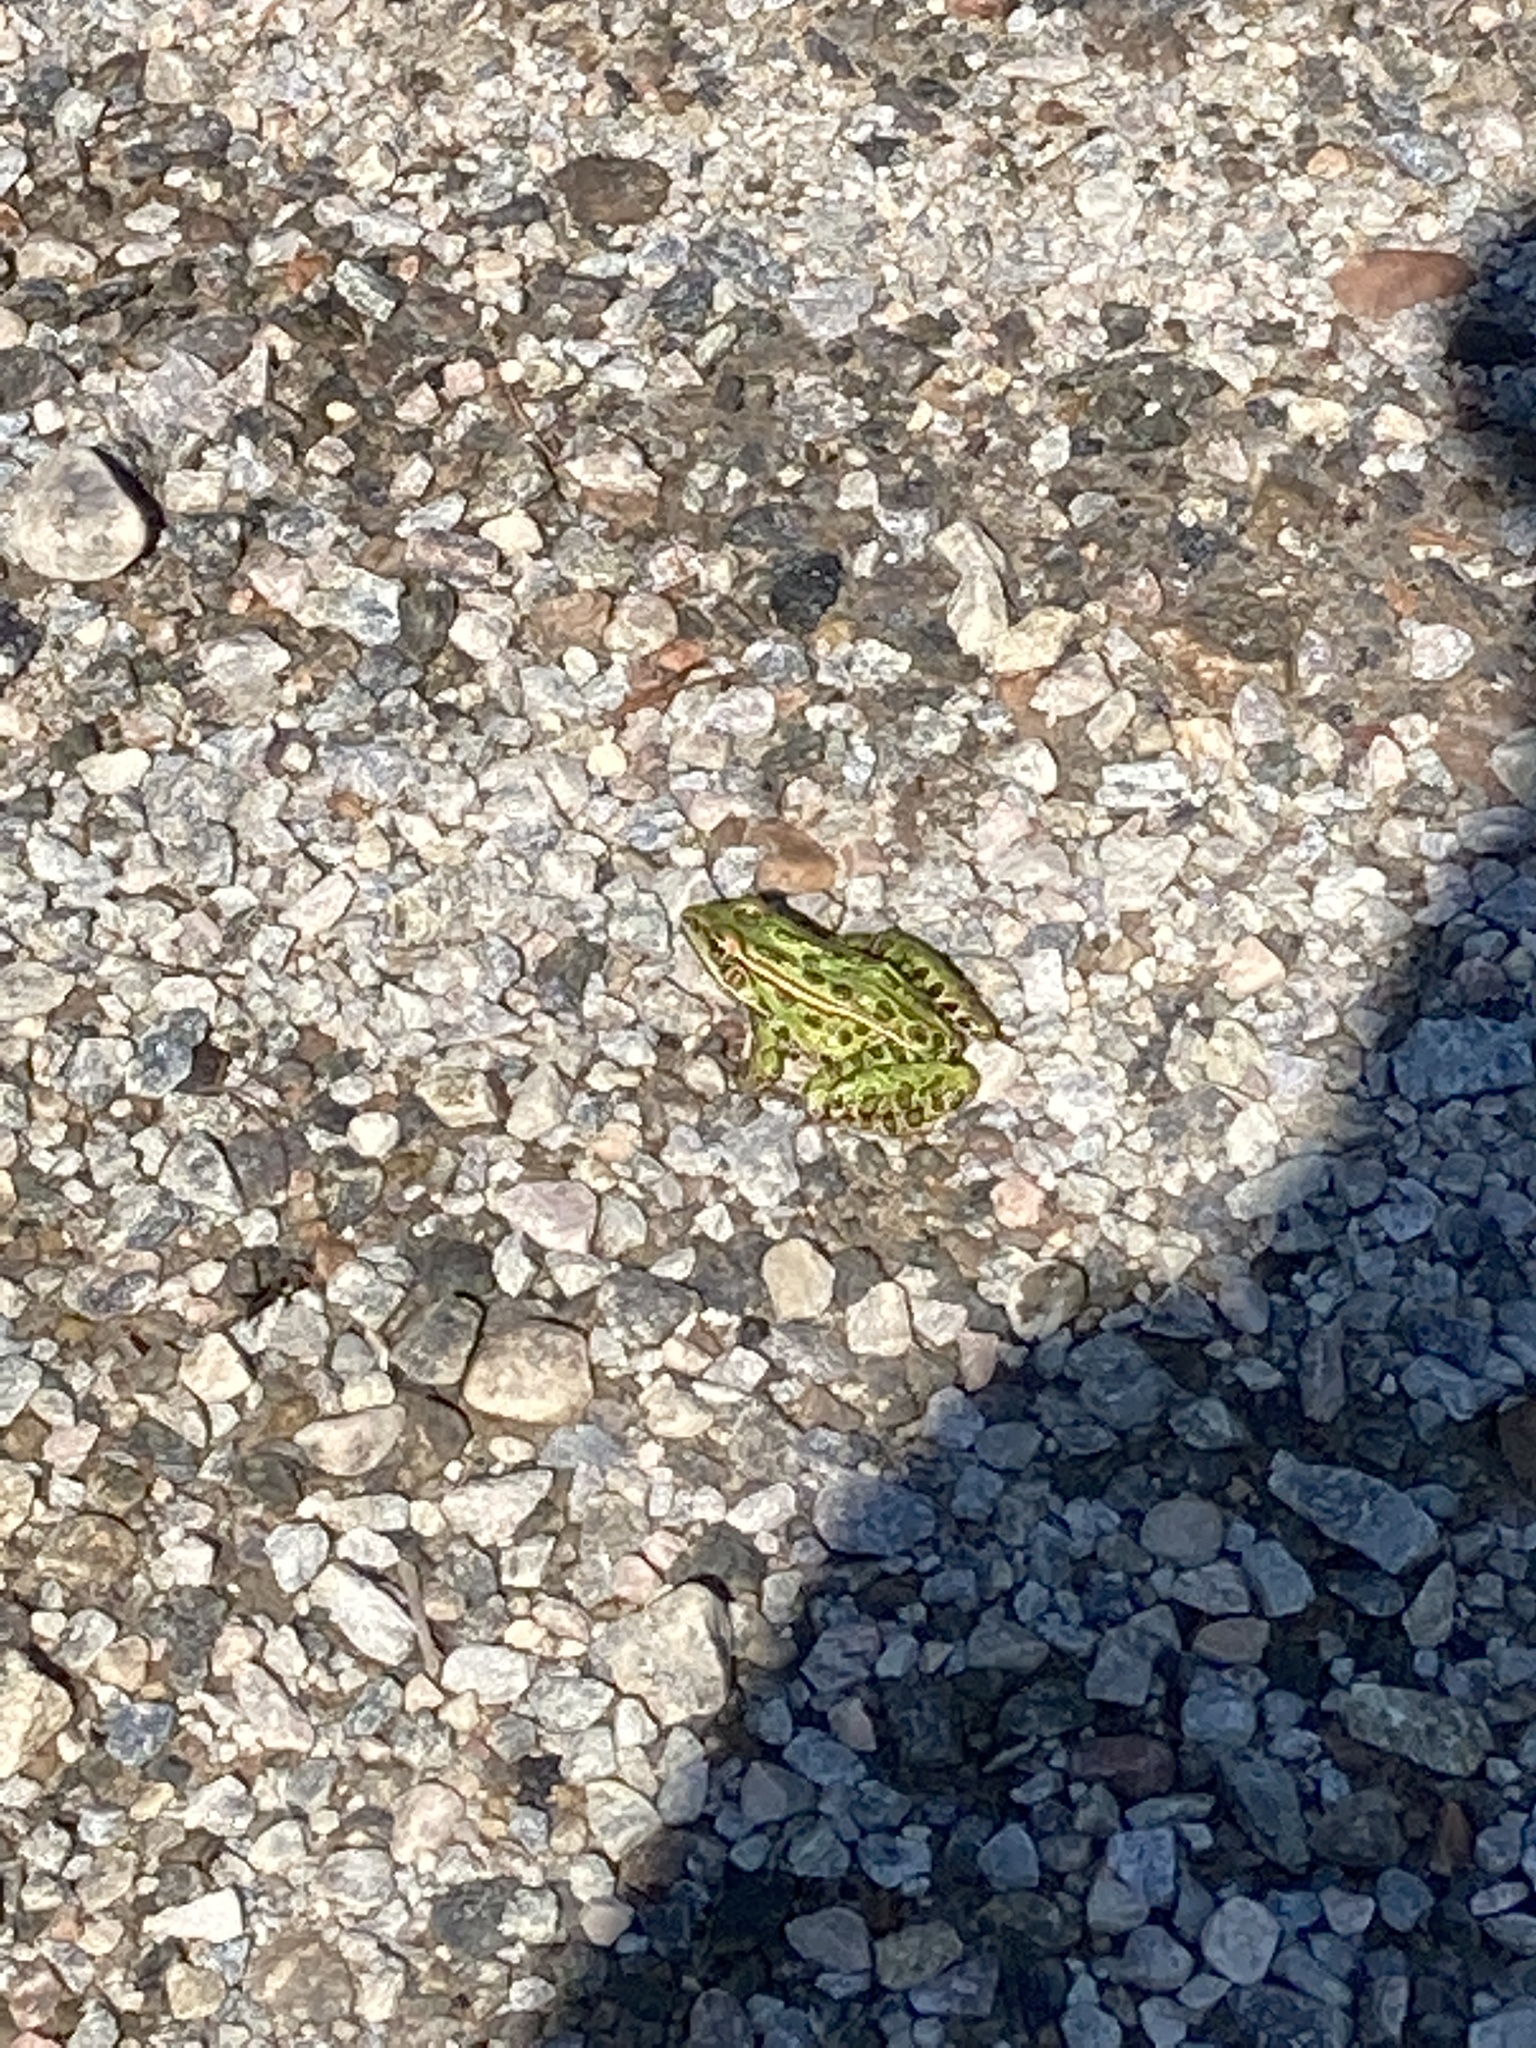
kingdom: Animalia
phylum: Chordata
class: Amphibia
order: Anura
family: Ranidae
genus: Lithobates
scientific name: Lithobates pipiens
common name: Northern leopard frog
